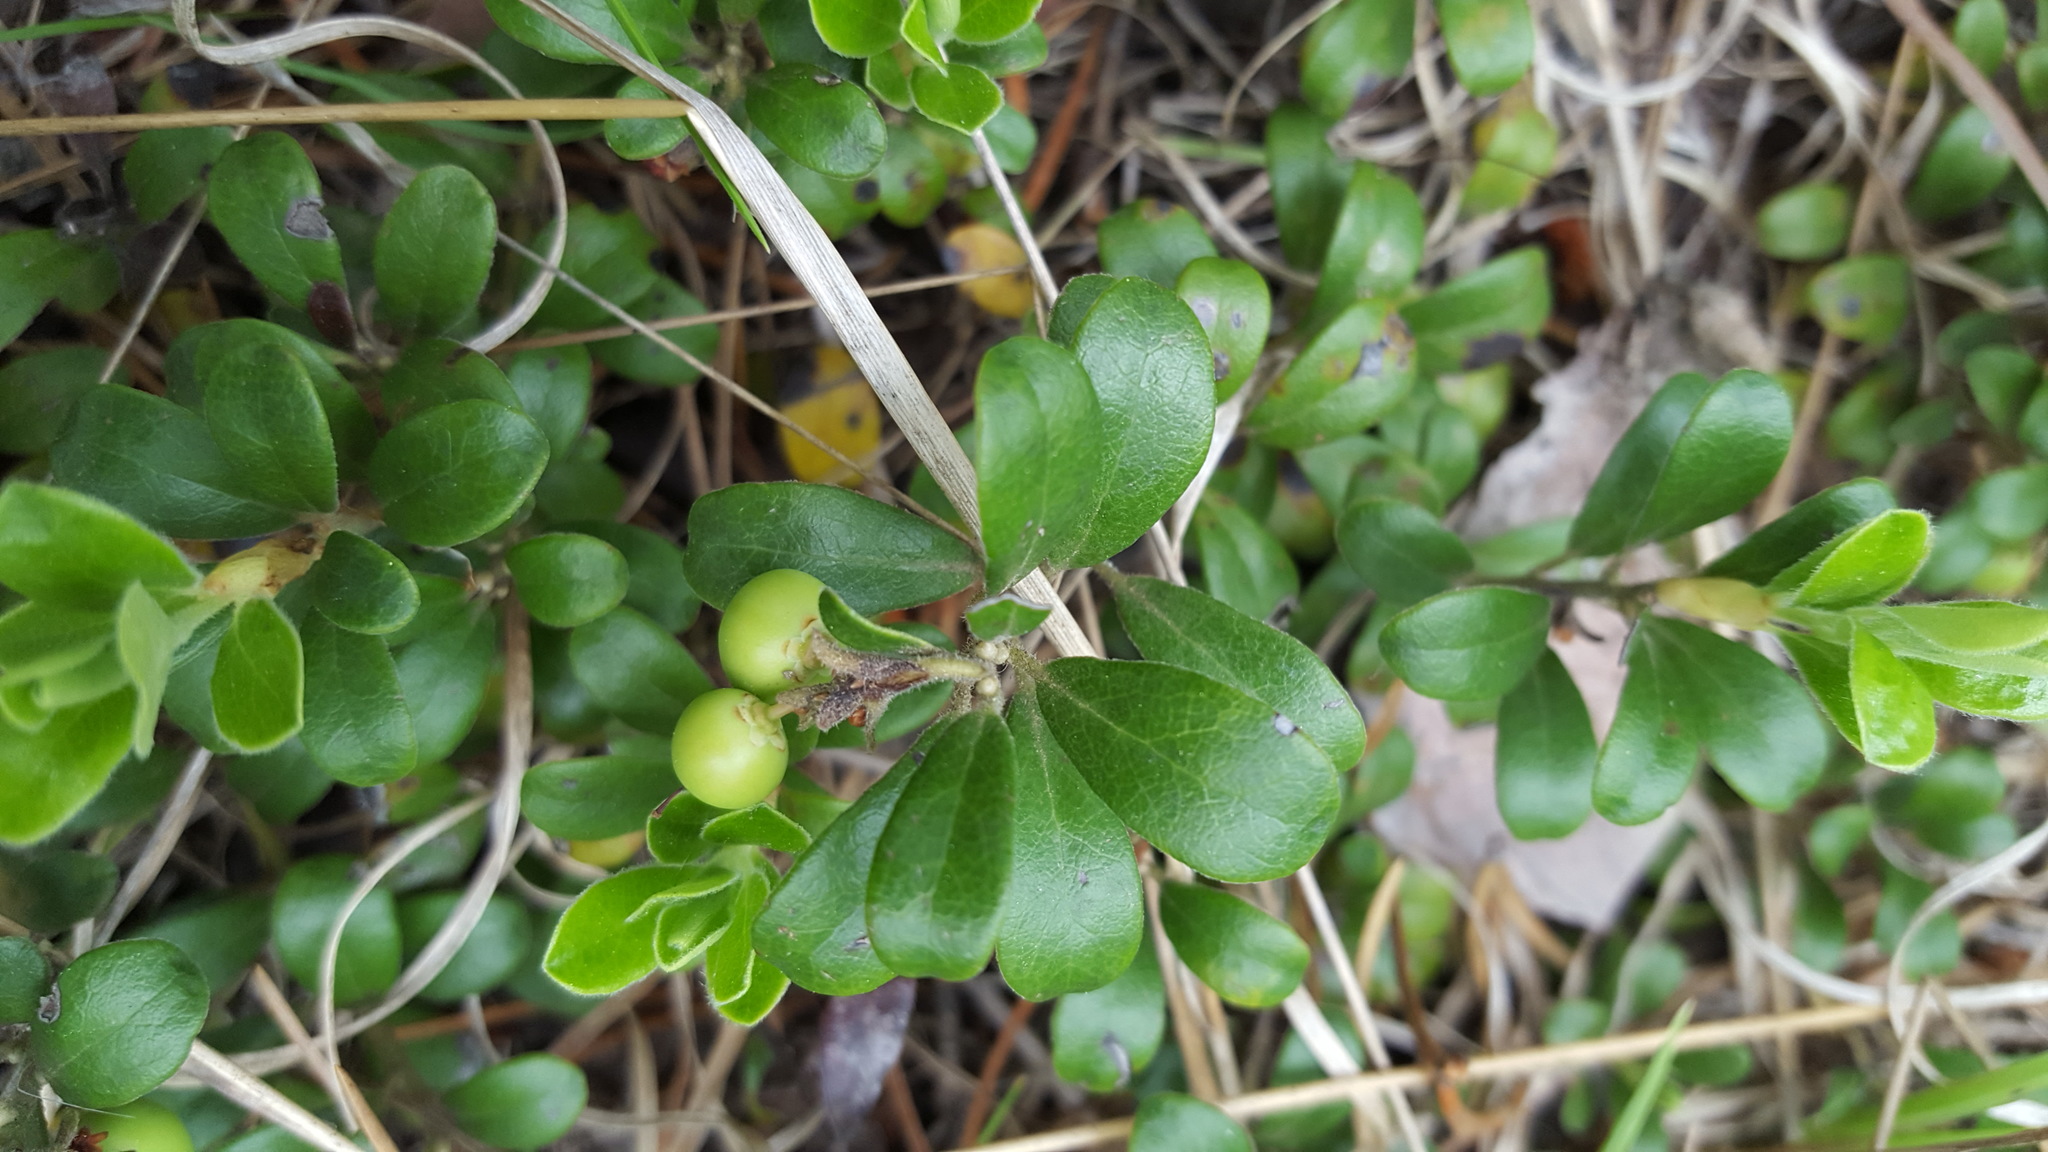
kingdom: Plantae
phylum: Tracheophyta
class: Magnoliopsida
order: Ericales
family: Ericaceae
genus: Arctostaphylos
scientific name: Arctostaphylos uva-ursi
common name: Bearberry
